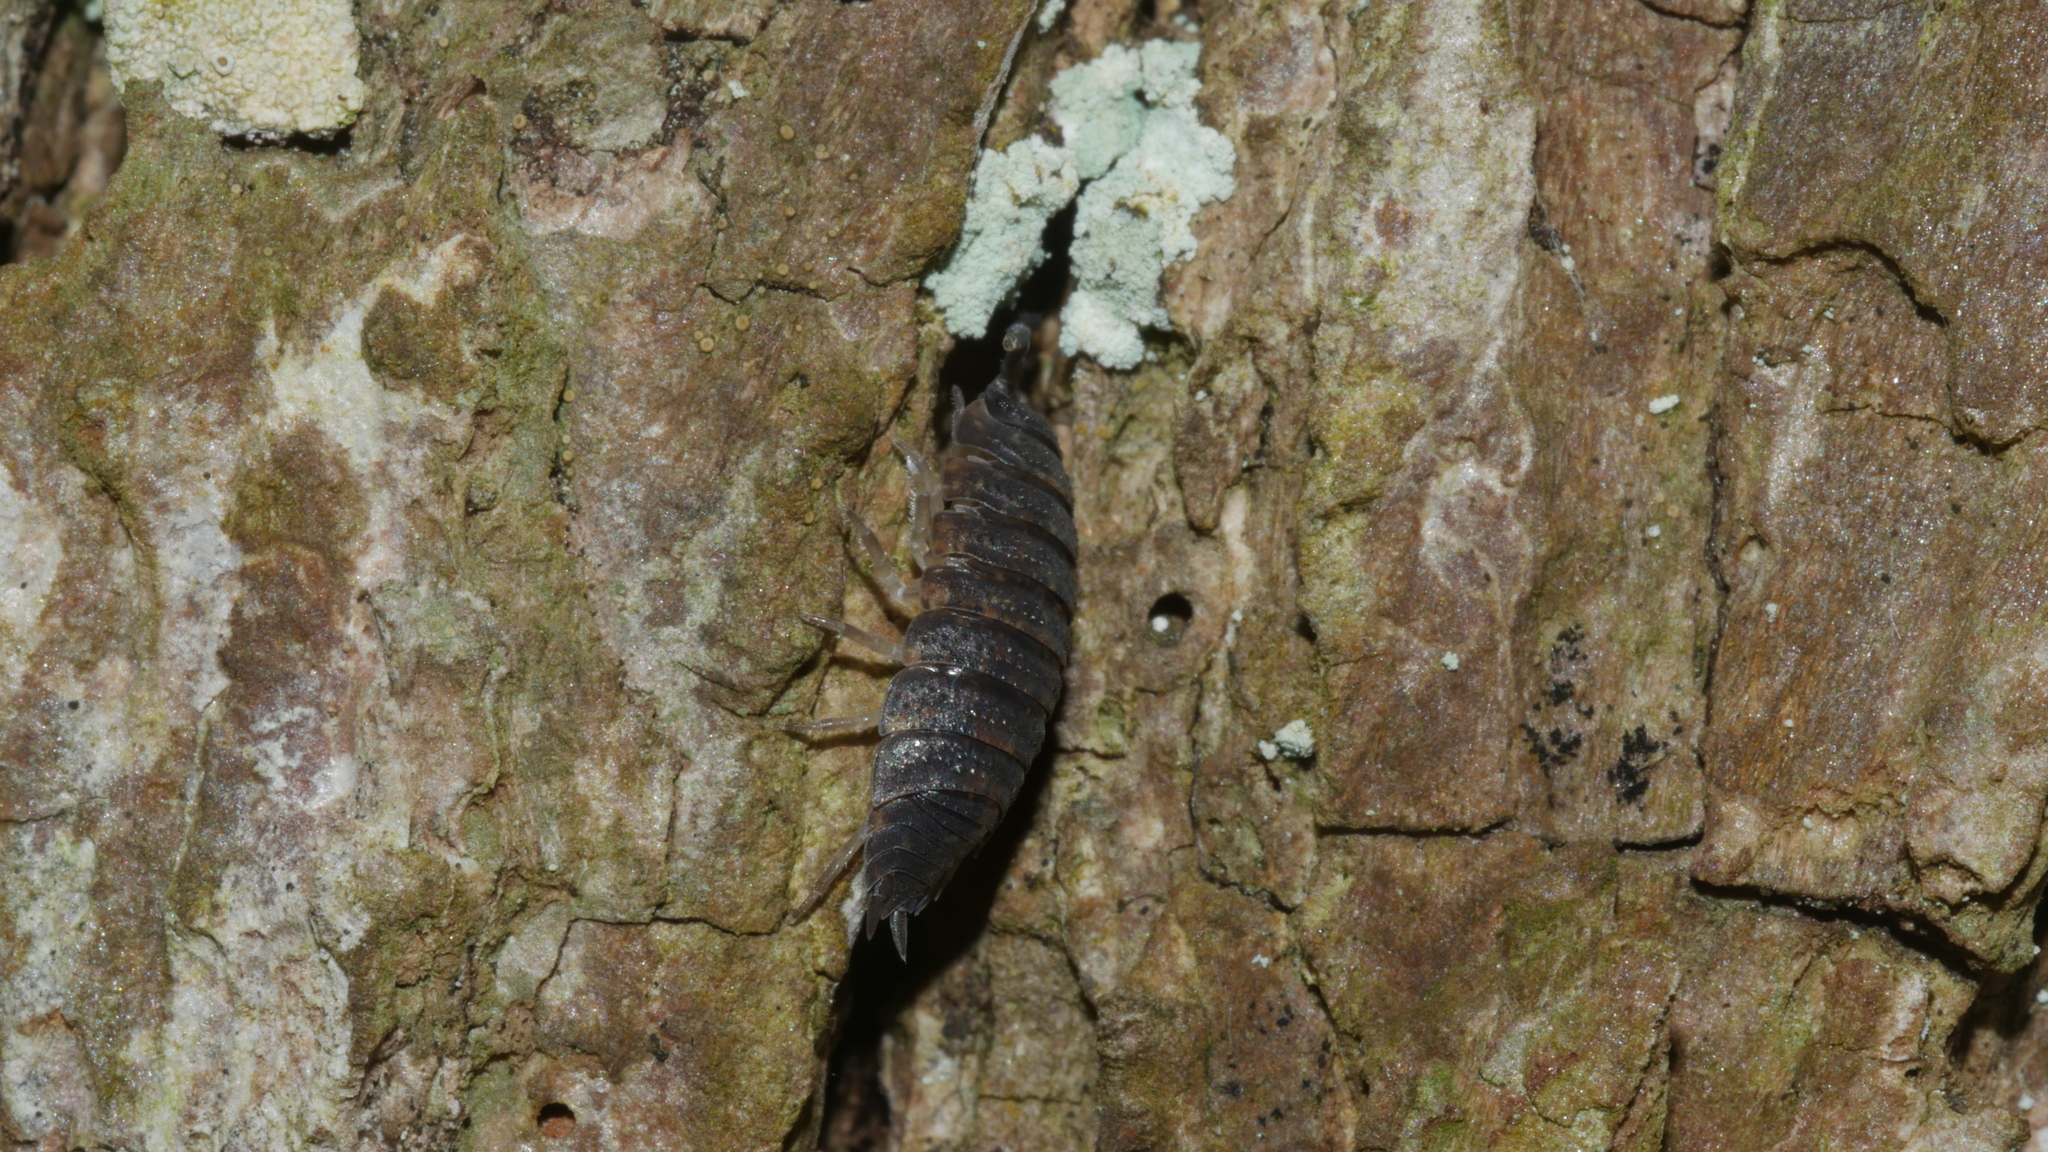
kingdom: Animalia
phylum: Arthropoda
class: Malacostraca
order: Isopoda
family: Porcellionidae
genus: Porcellio
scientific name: Porcellio scaber
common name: Common rough woodlouse
